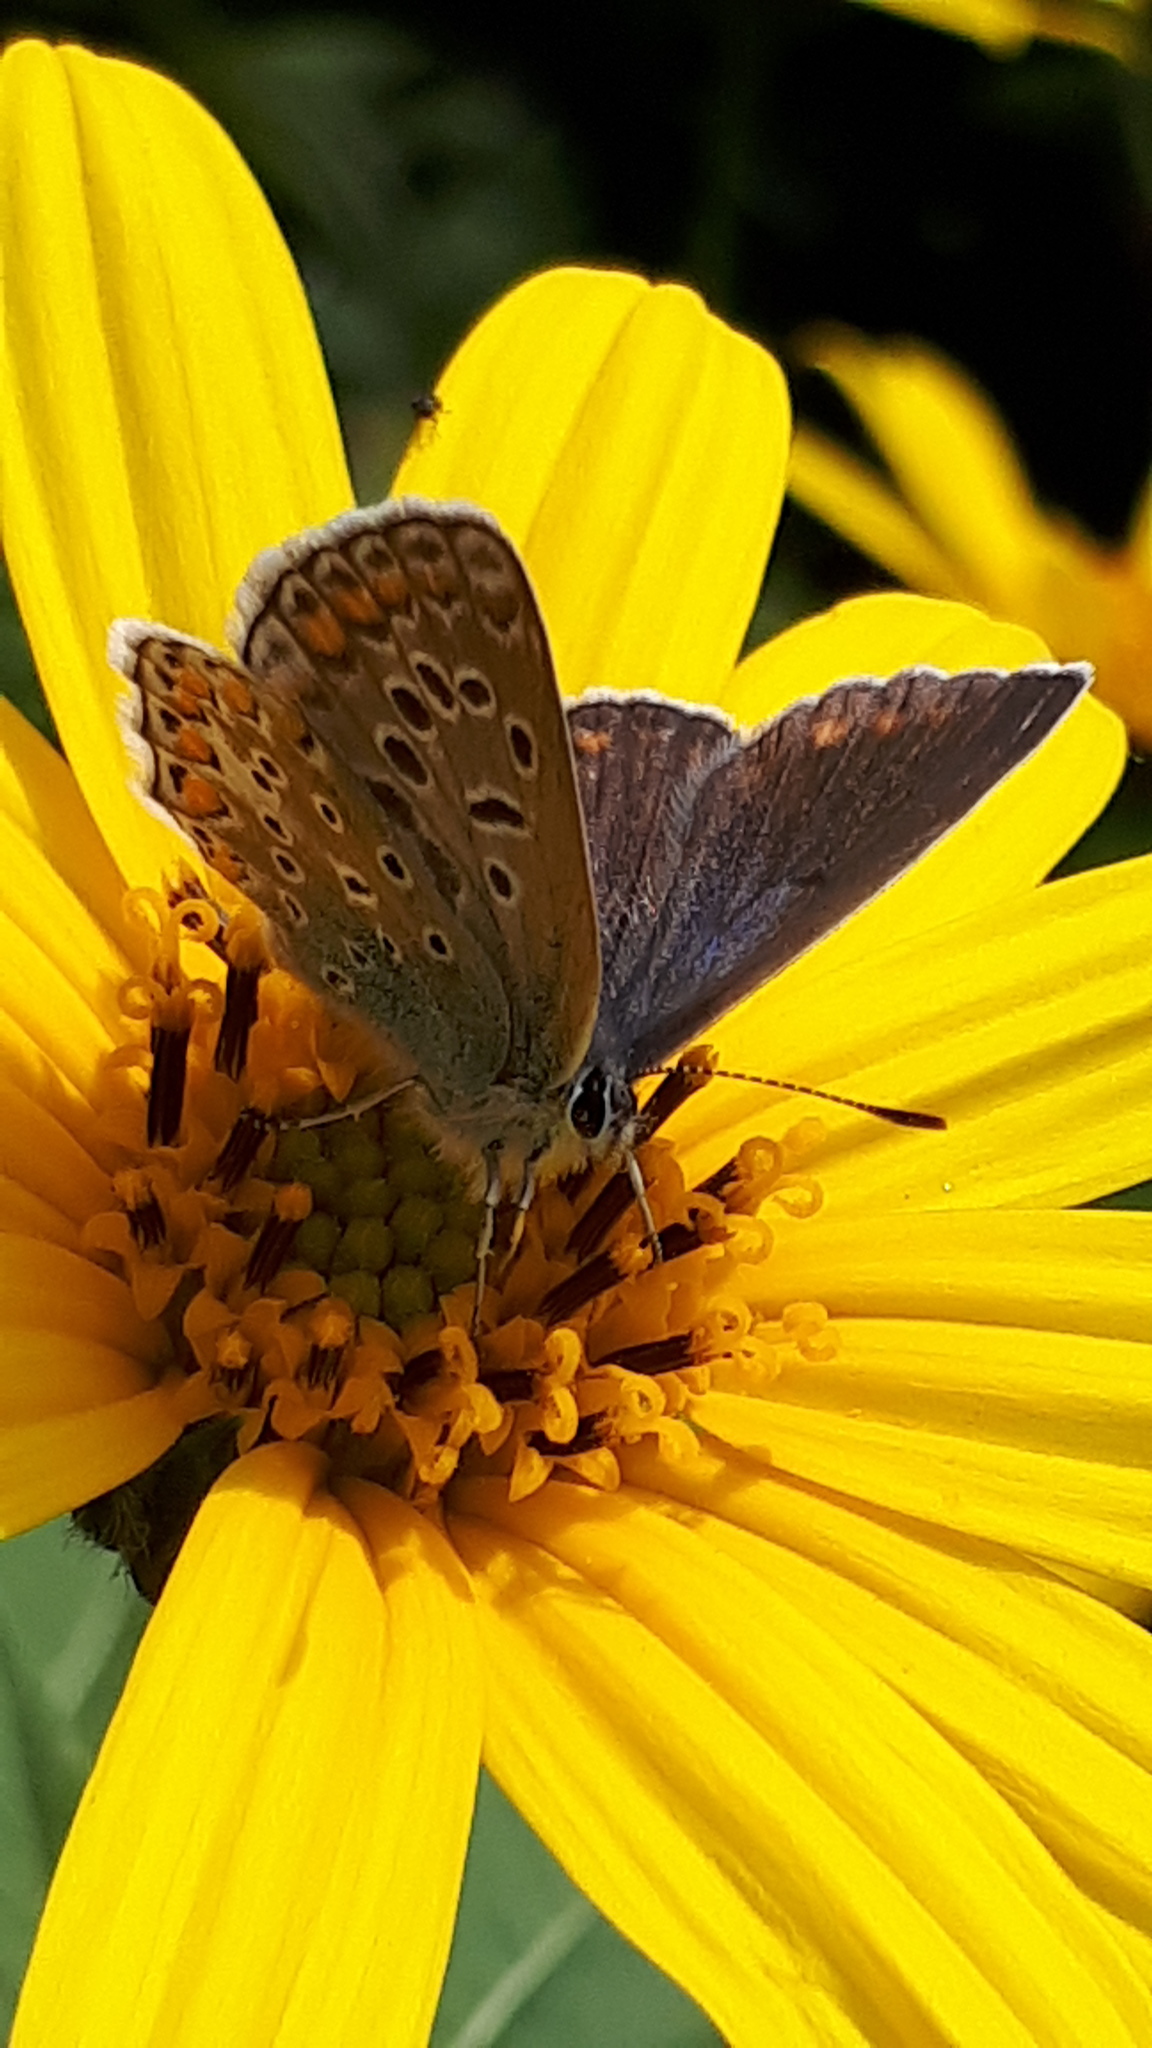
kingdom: Animalia
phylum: Arthropoda
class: Insecta
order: Lepidoptera
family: Lycaenidae
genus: Polyommatus
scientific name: Polyommatus icarus
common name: Common blue
